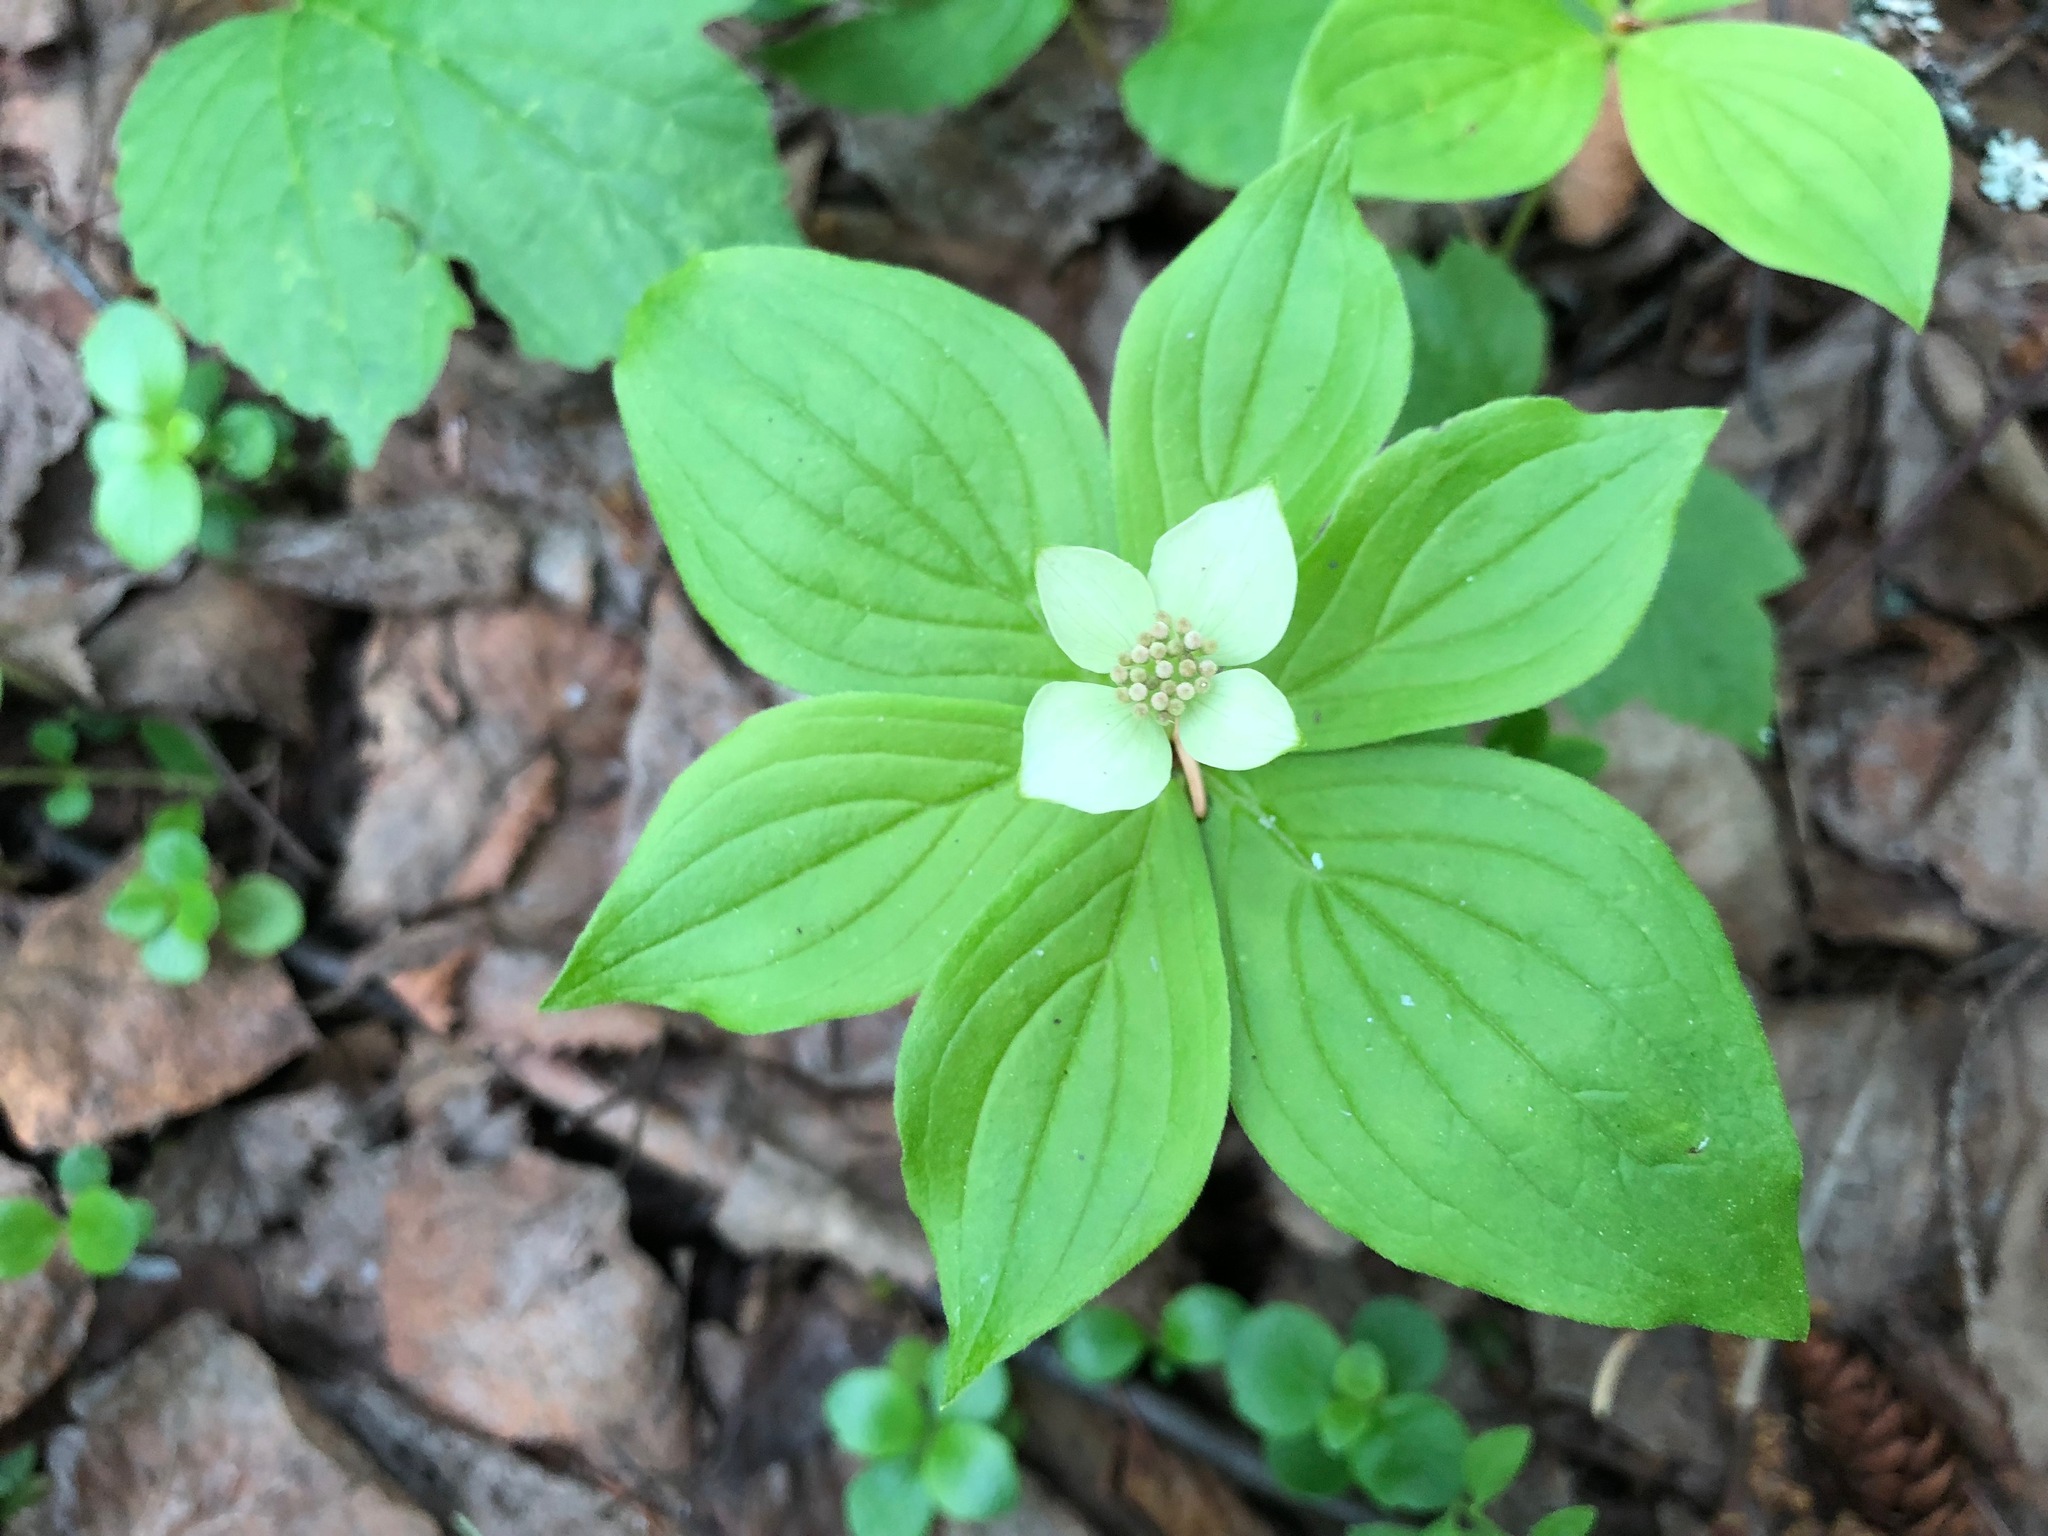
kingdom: Plantae
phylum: Tracheophyta
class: Magnoliopsida
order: Cornales
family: Cornaceae
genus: Cornus
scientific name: Cornus canadensis
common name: Creeping dogwood
